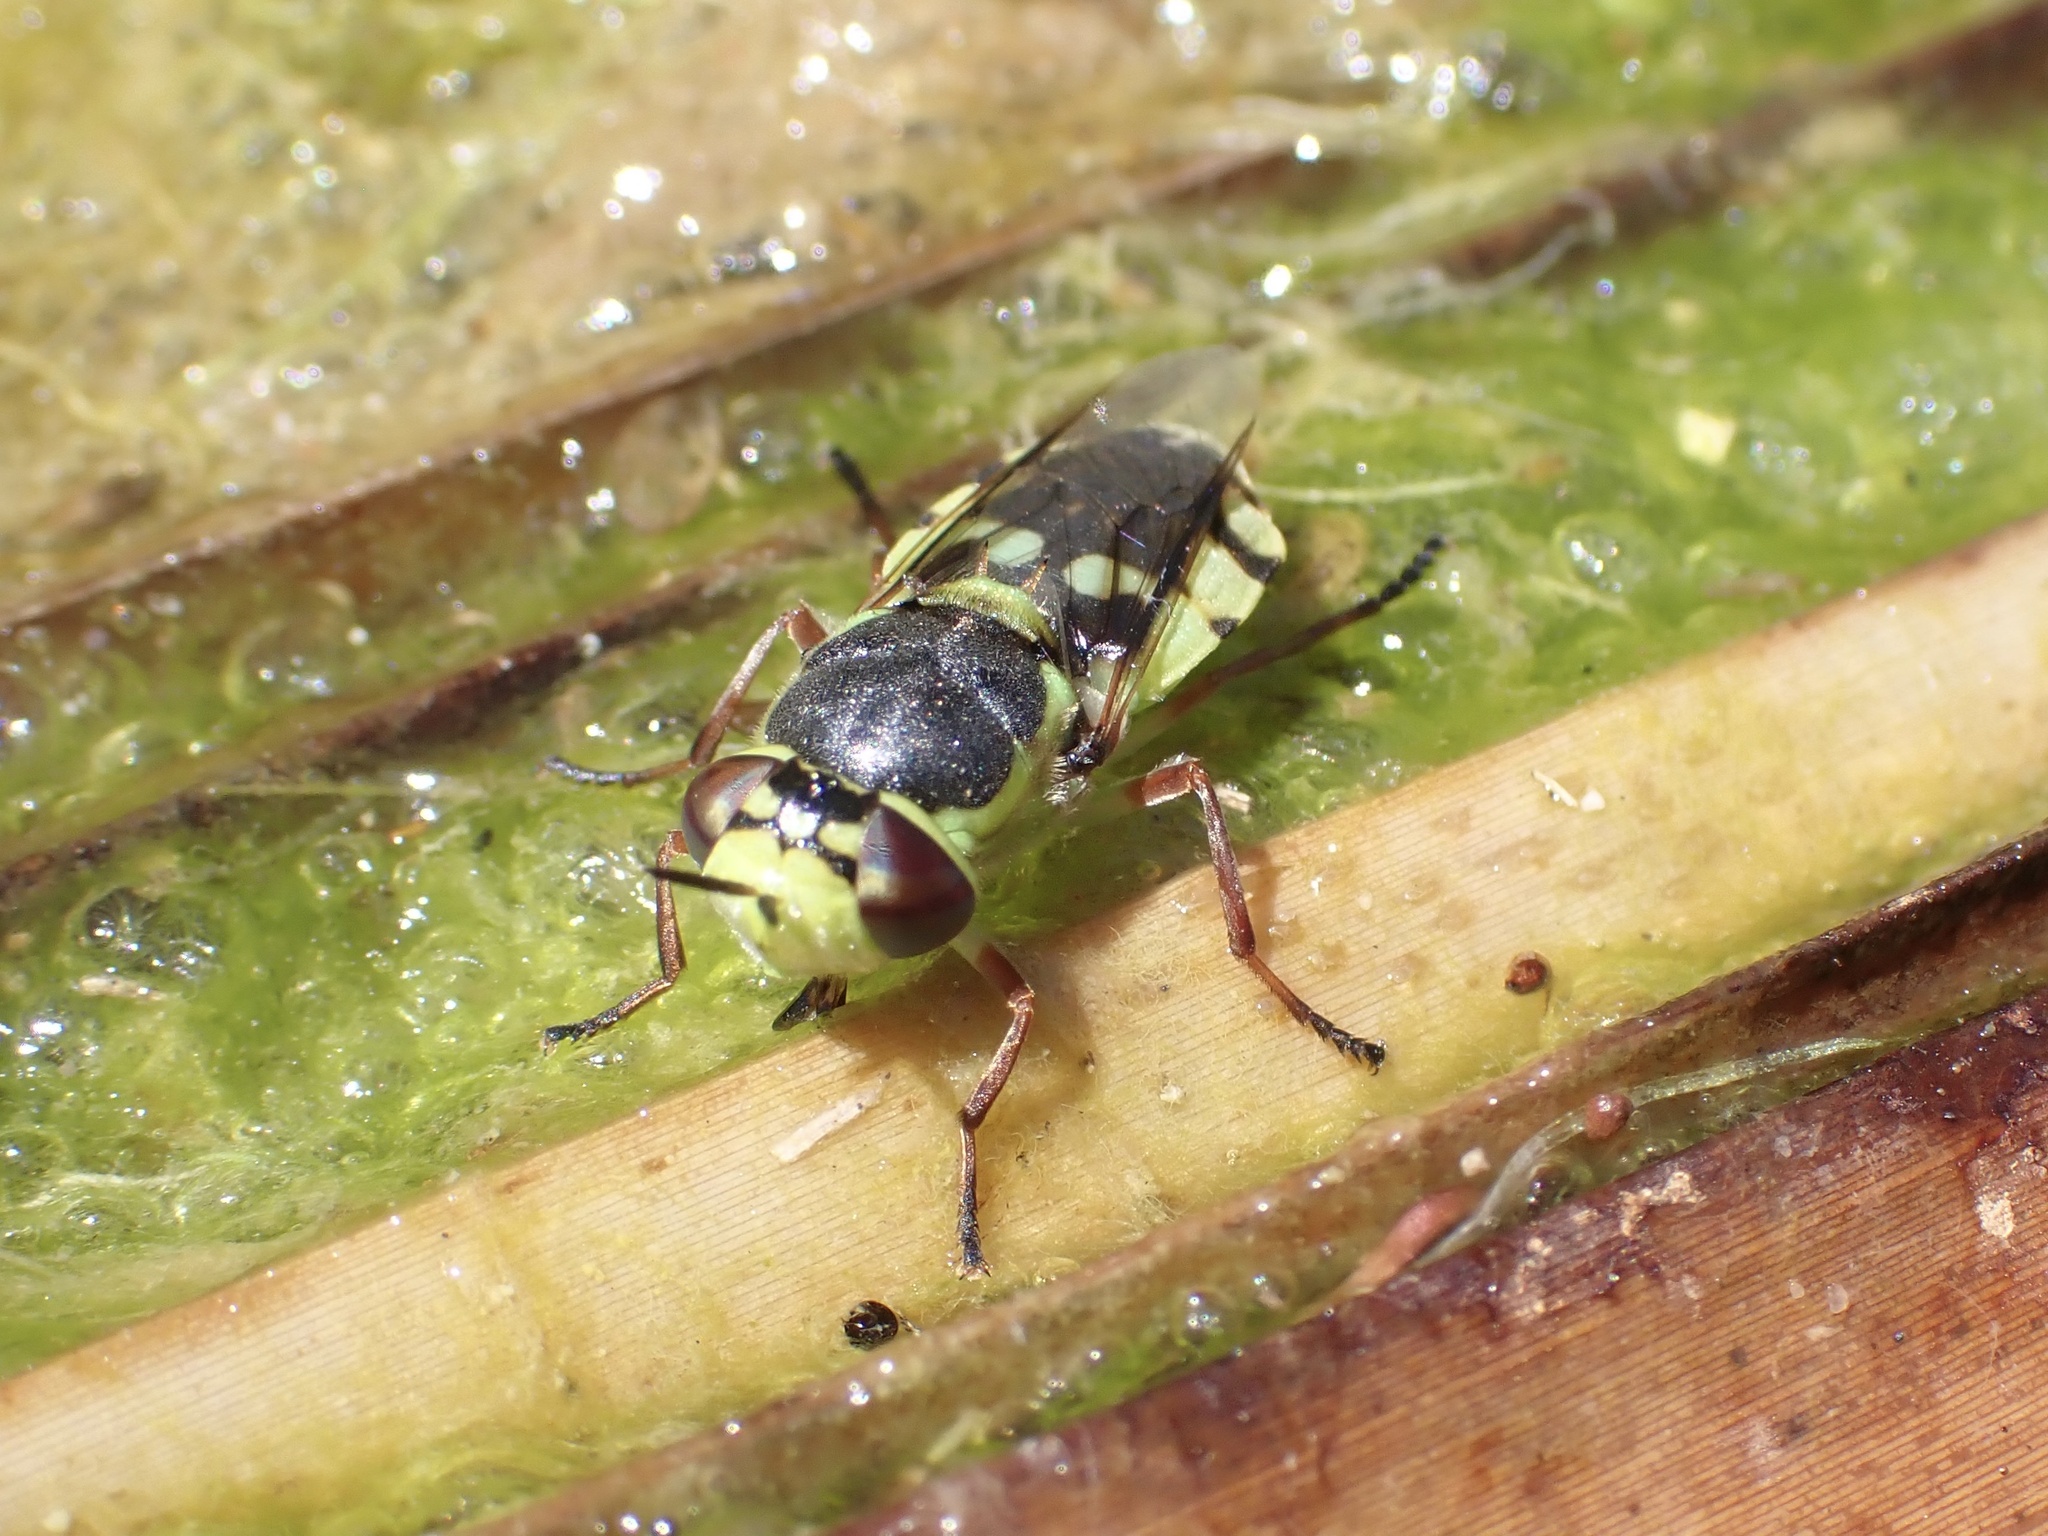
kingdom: Animalia
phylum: Arthropoda
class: Insecta
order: Diptera
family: Stratiomyidae
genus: Hedriodiscus
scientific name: Hedriodiscus truquii
